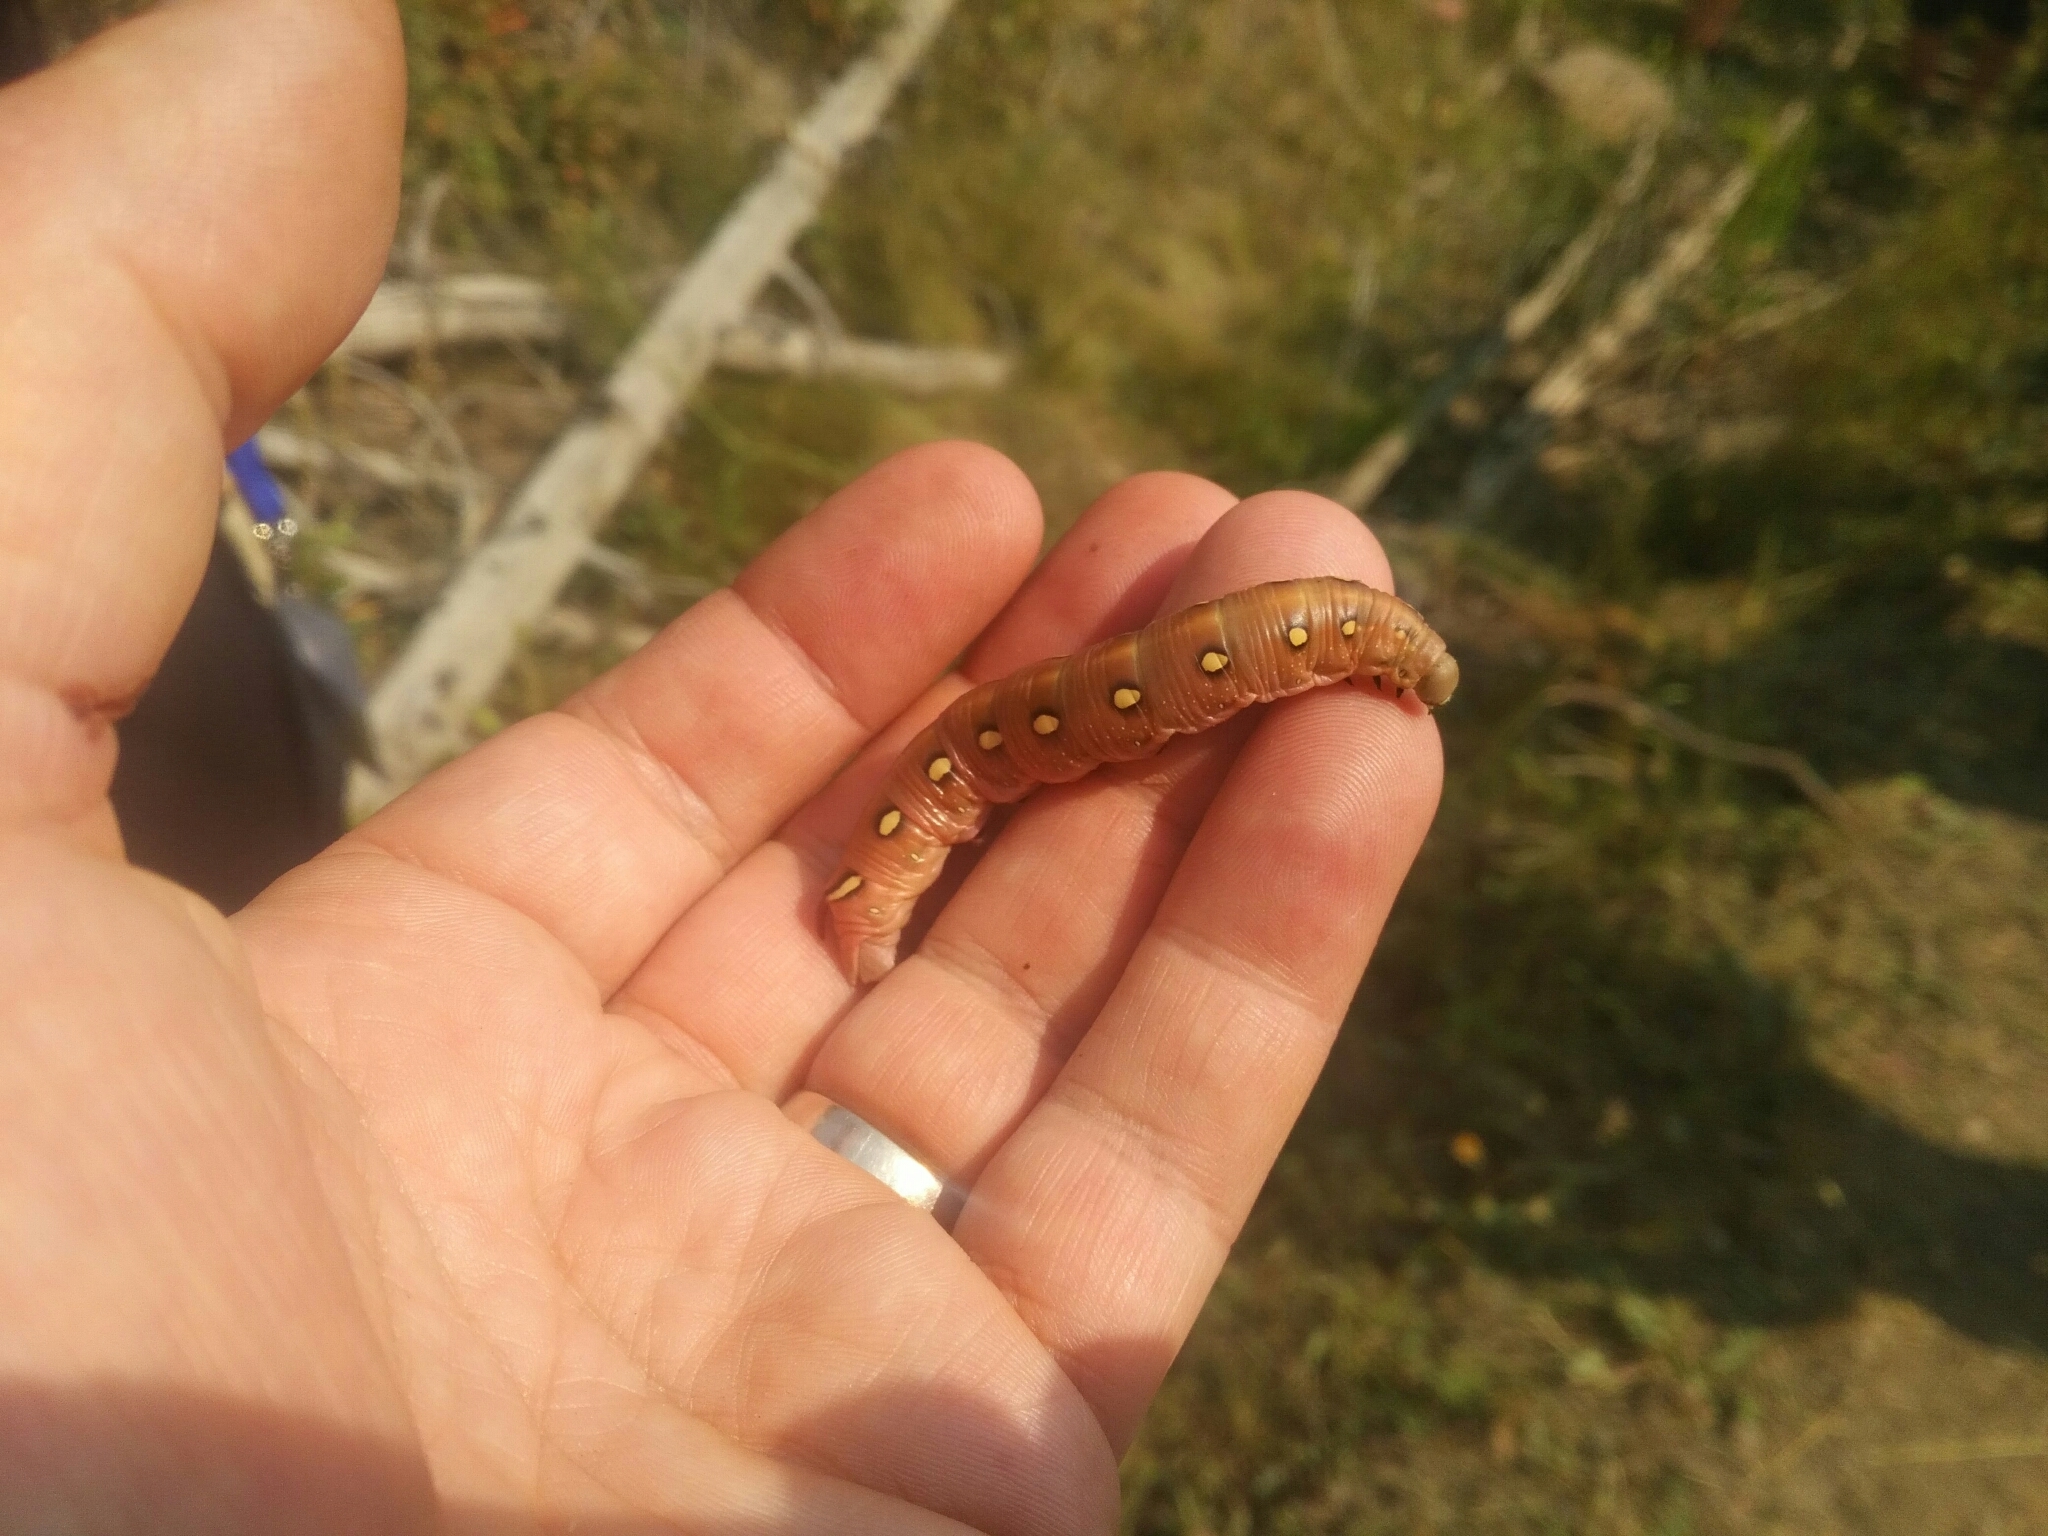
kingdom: Animalia
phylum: Arthropoda
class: Insecta
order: Lepidoptera
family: Sphingidae
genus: Hyles
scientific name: Hyles gallii
